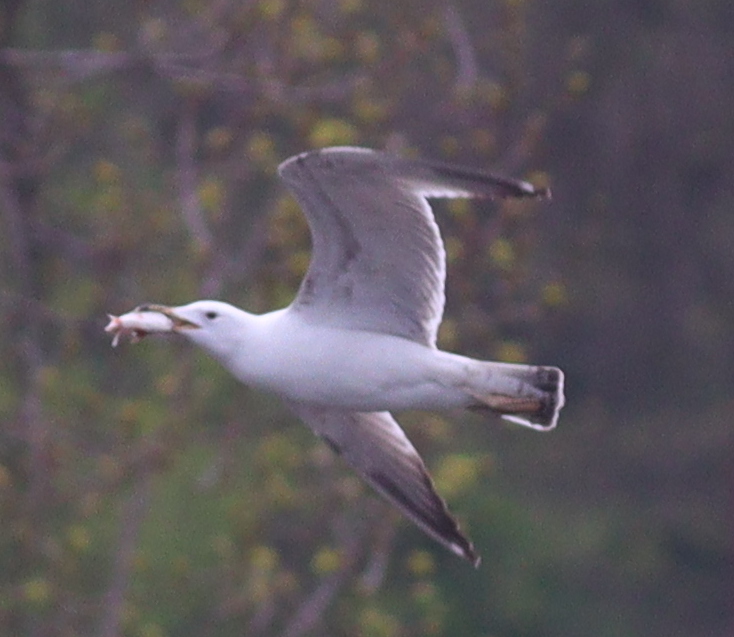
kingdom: Animalia
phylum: Chordata
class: Aves
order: Charadriiformes
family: Laridae
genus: Larus
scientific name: Larus cachinnans
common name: Caspian gull
